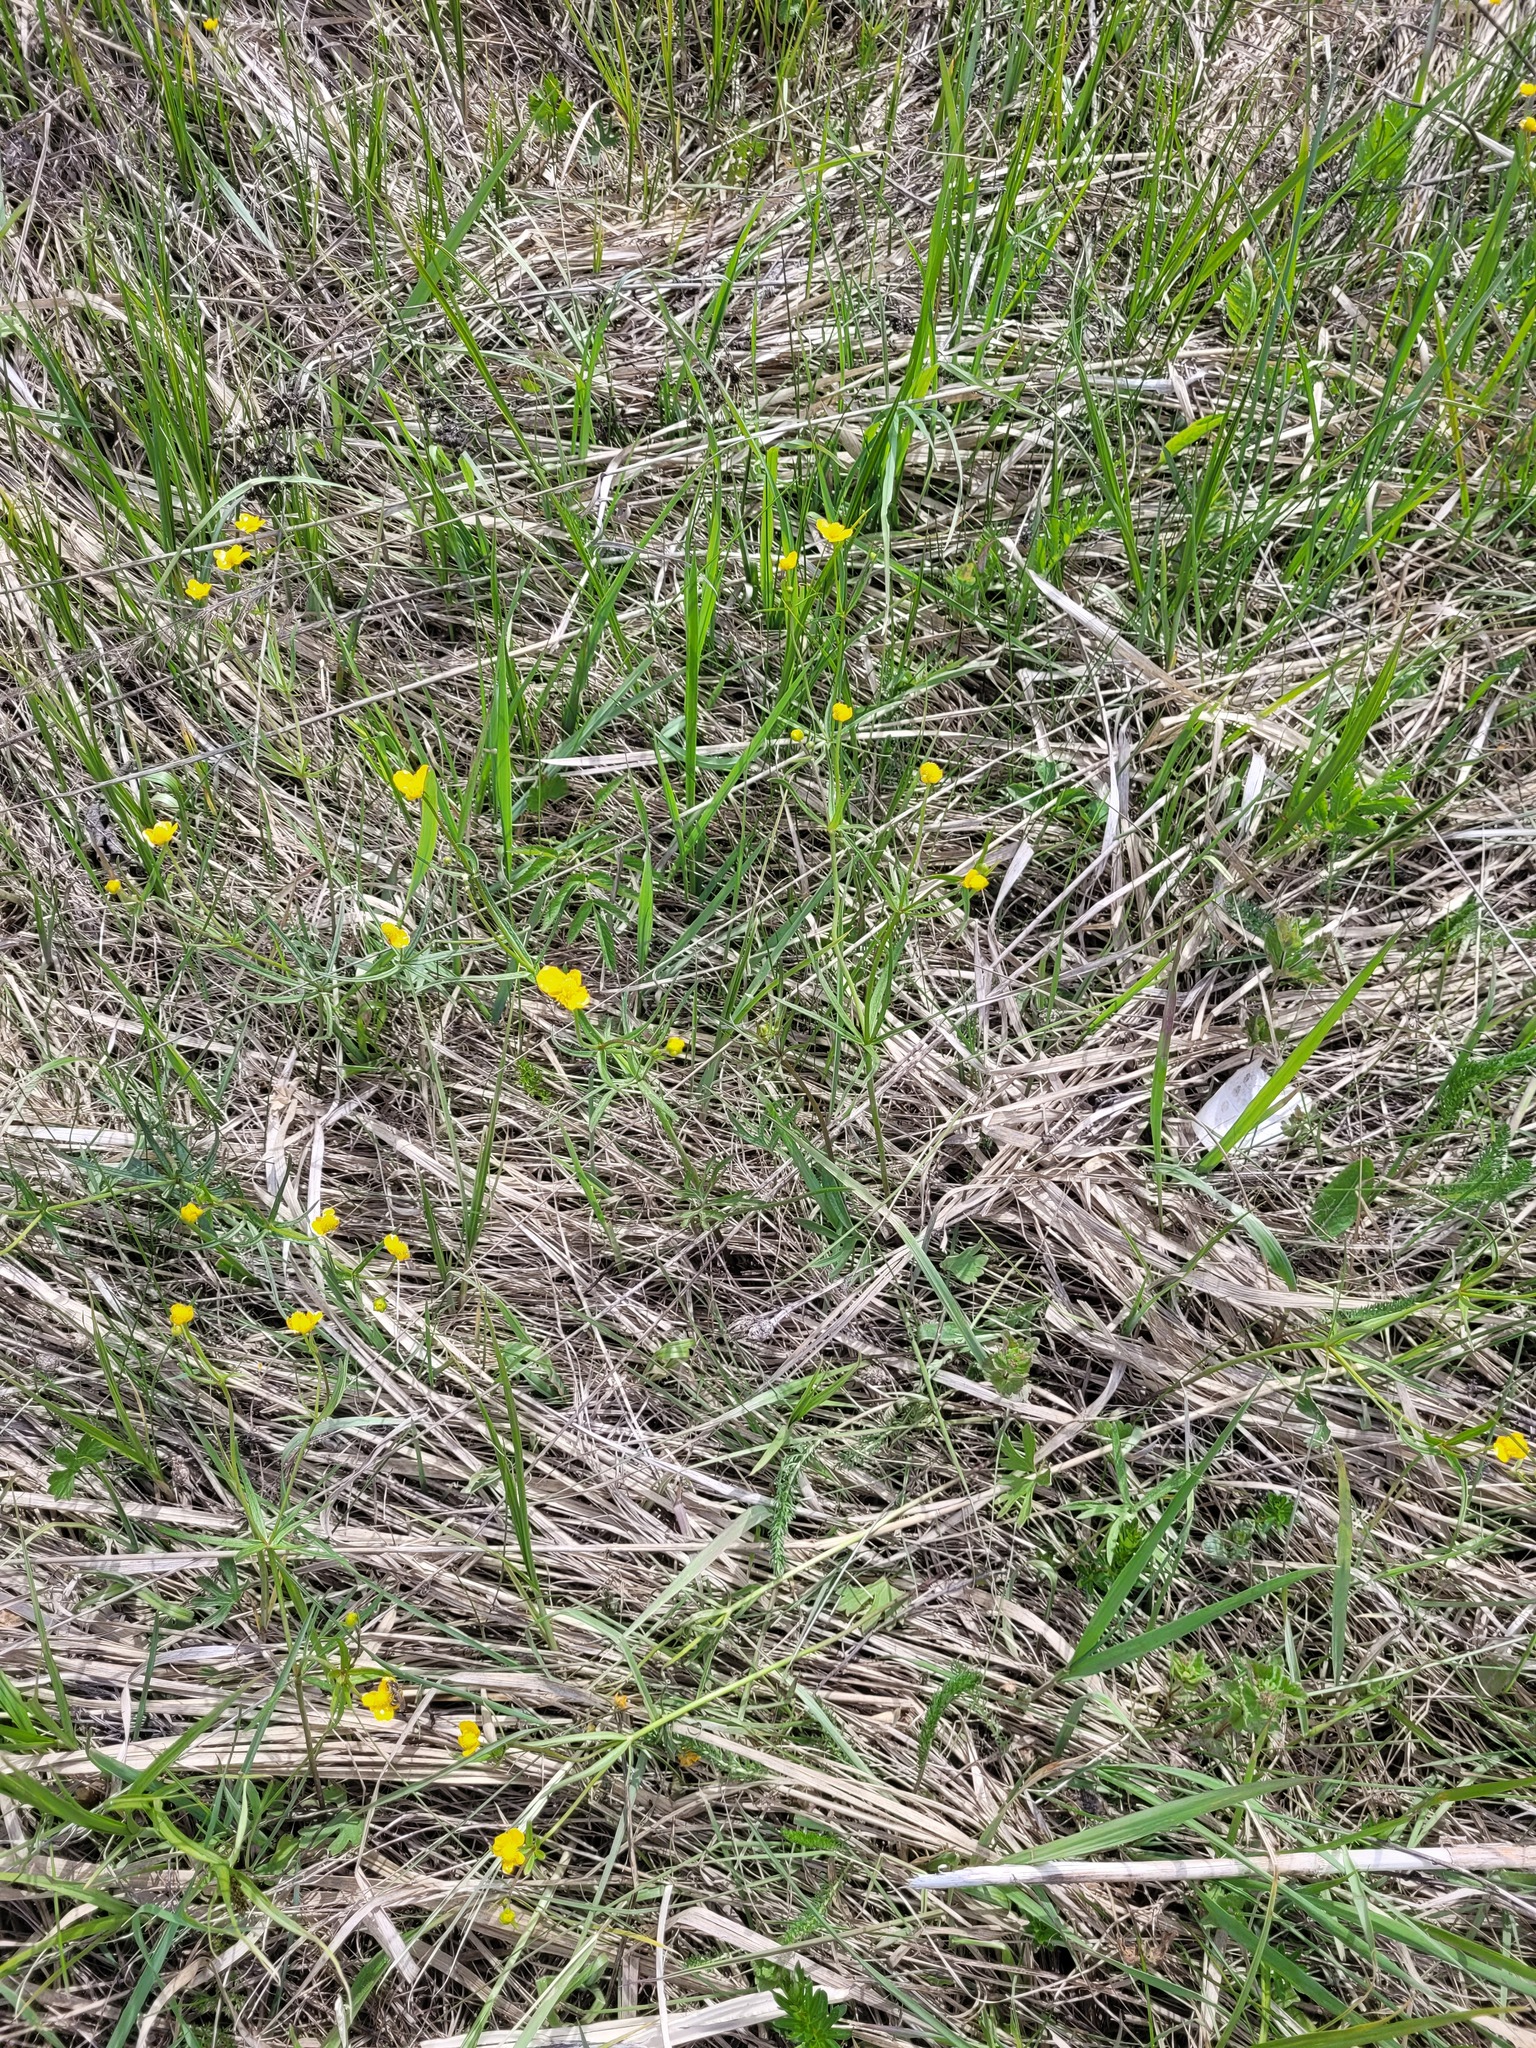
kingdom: Plantae
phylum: Tracheophyta
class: Magnoliopsida
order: Ranunculales
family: Ranunculaceae
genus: Ranunculus
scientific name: Ranunculus auricomus
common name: Goldilocks buttercup
